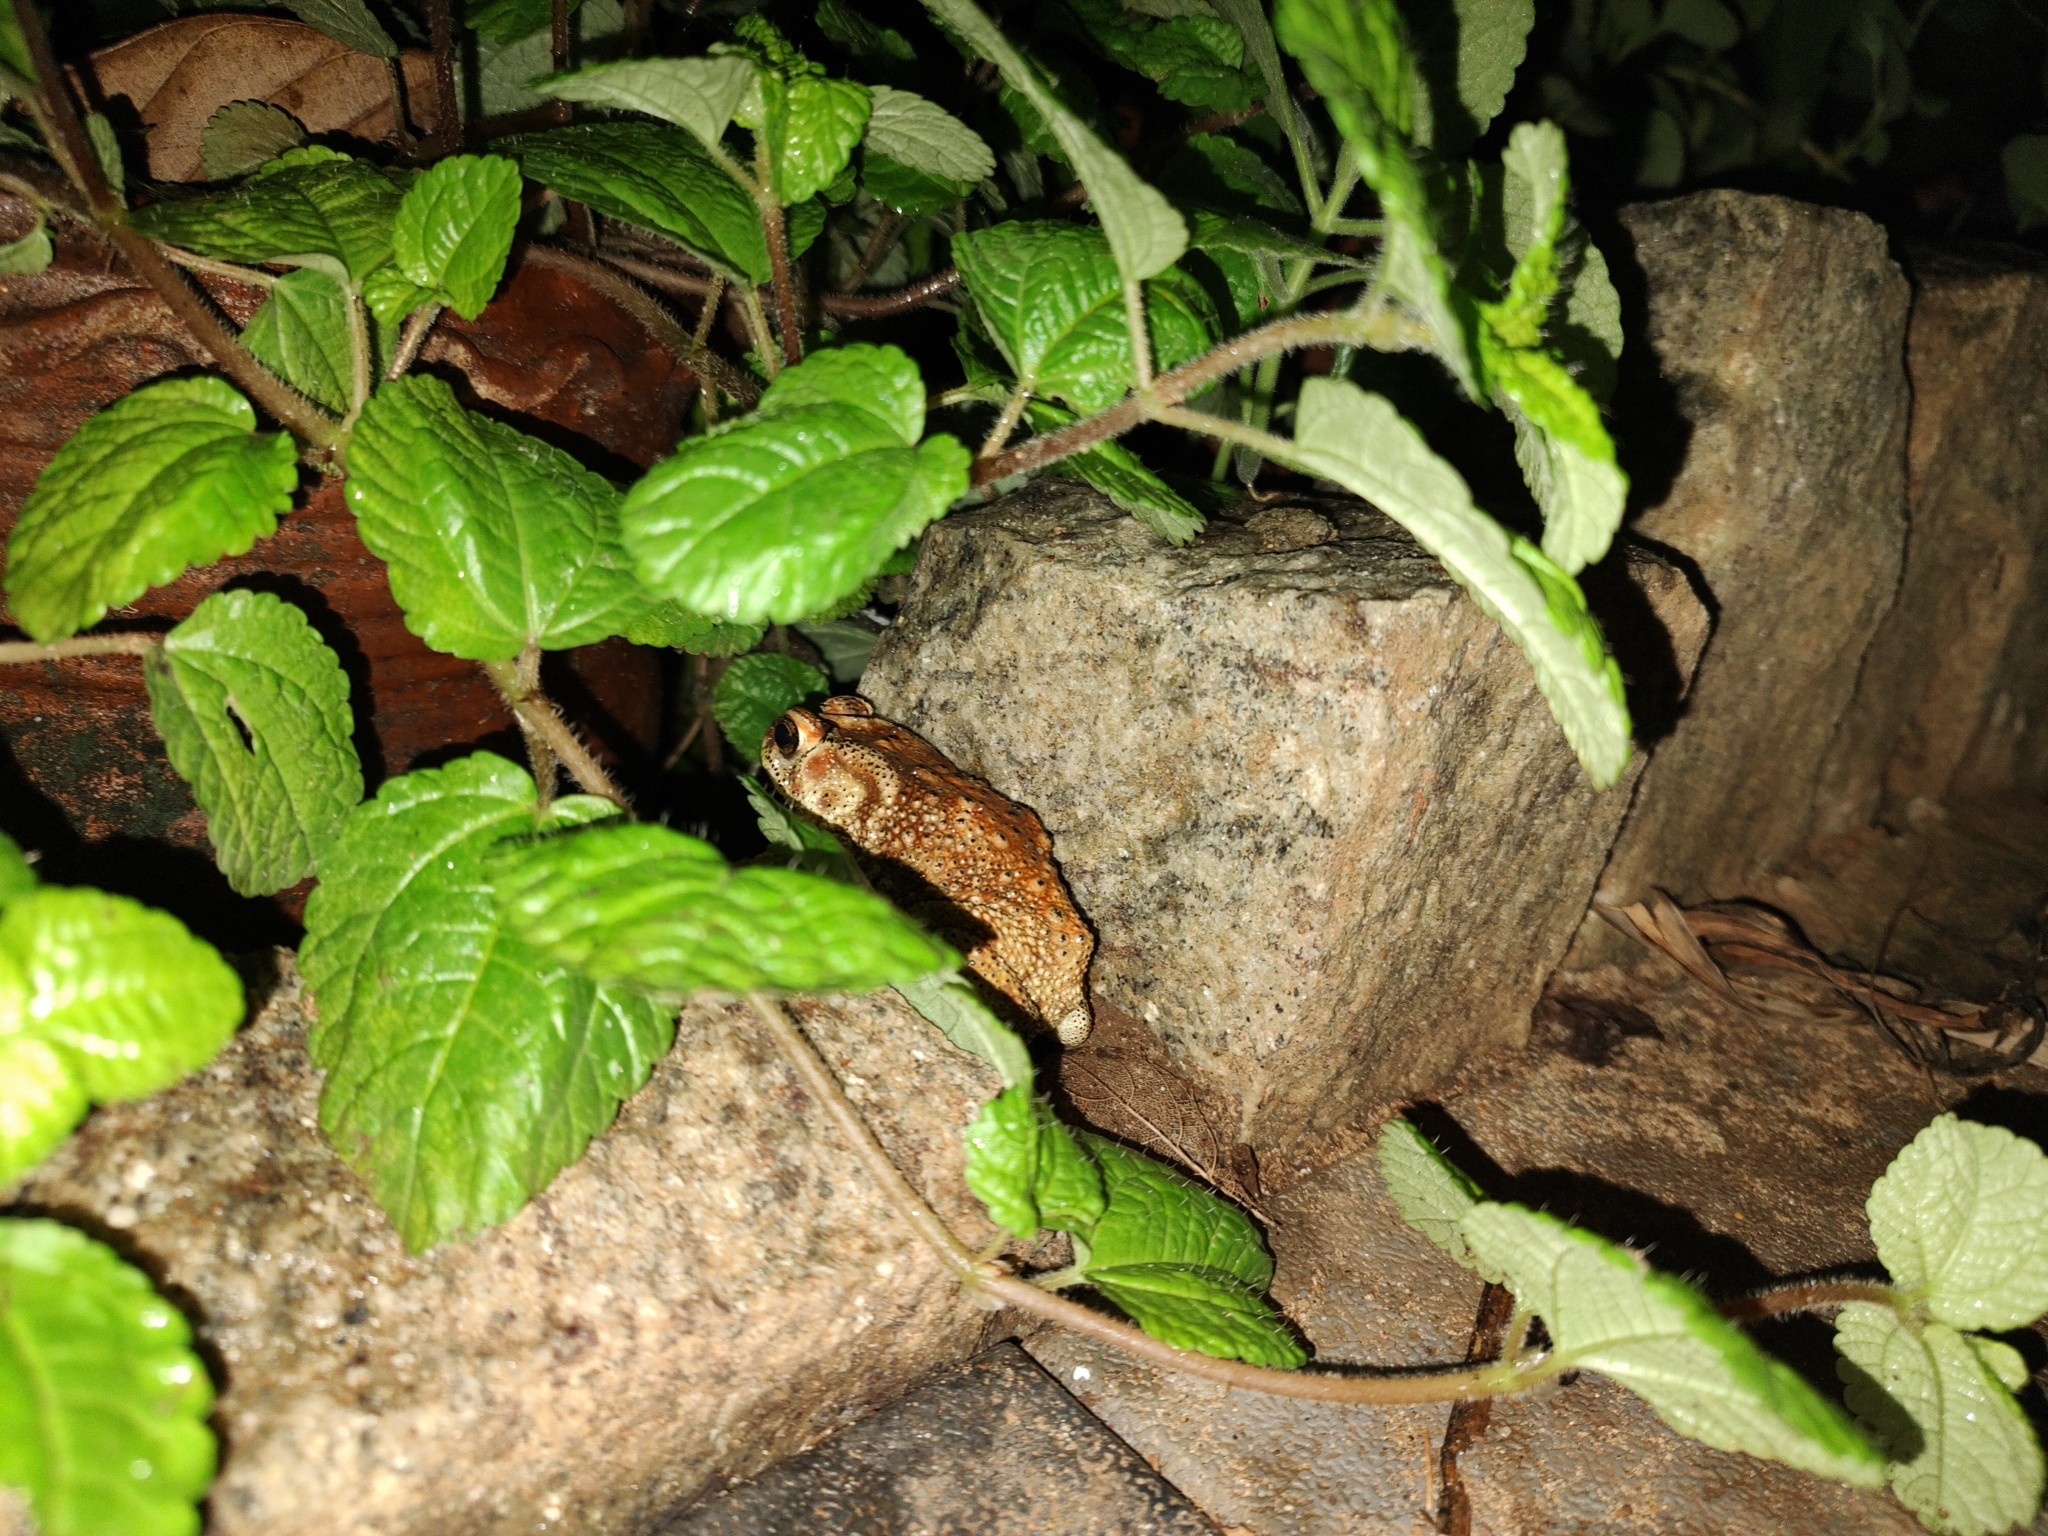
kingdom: Animalia
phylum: Chordata
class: Amphibia
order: Anura
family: Bufonidae
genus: Duttaphrynus
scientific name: Duttaphrynus melanostictus
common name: Common sunda toad
